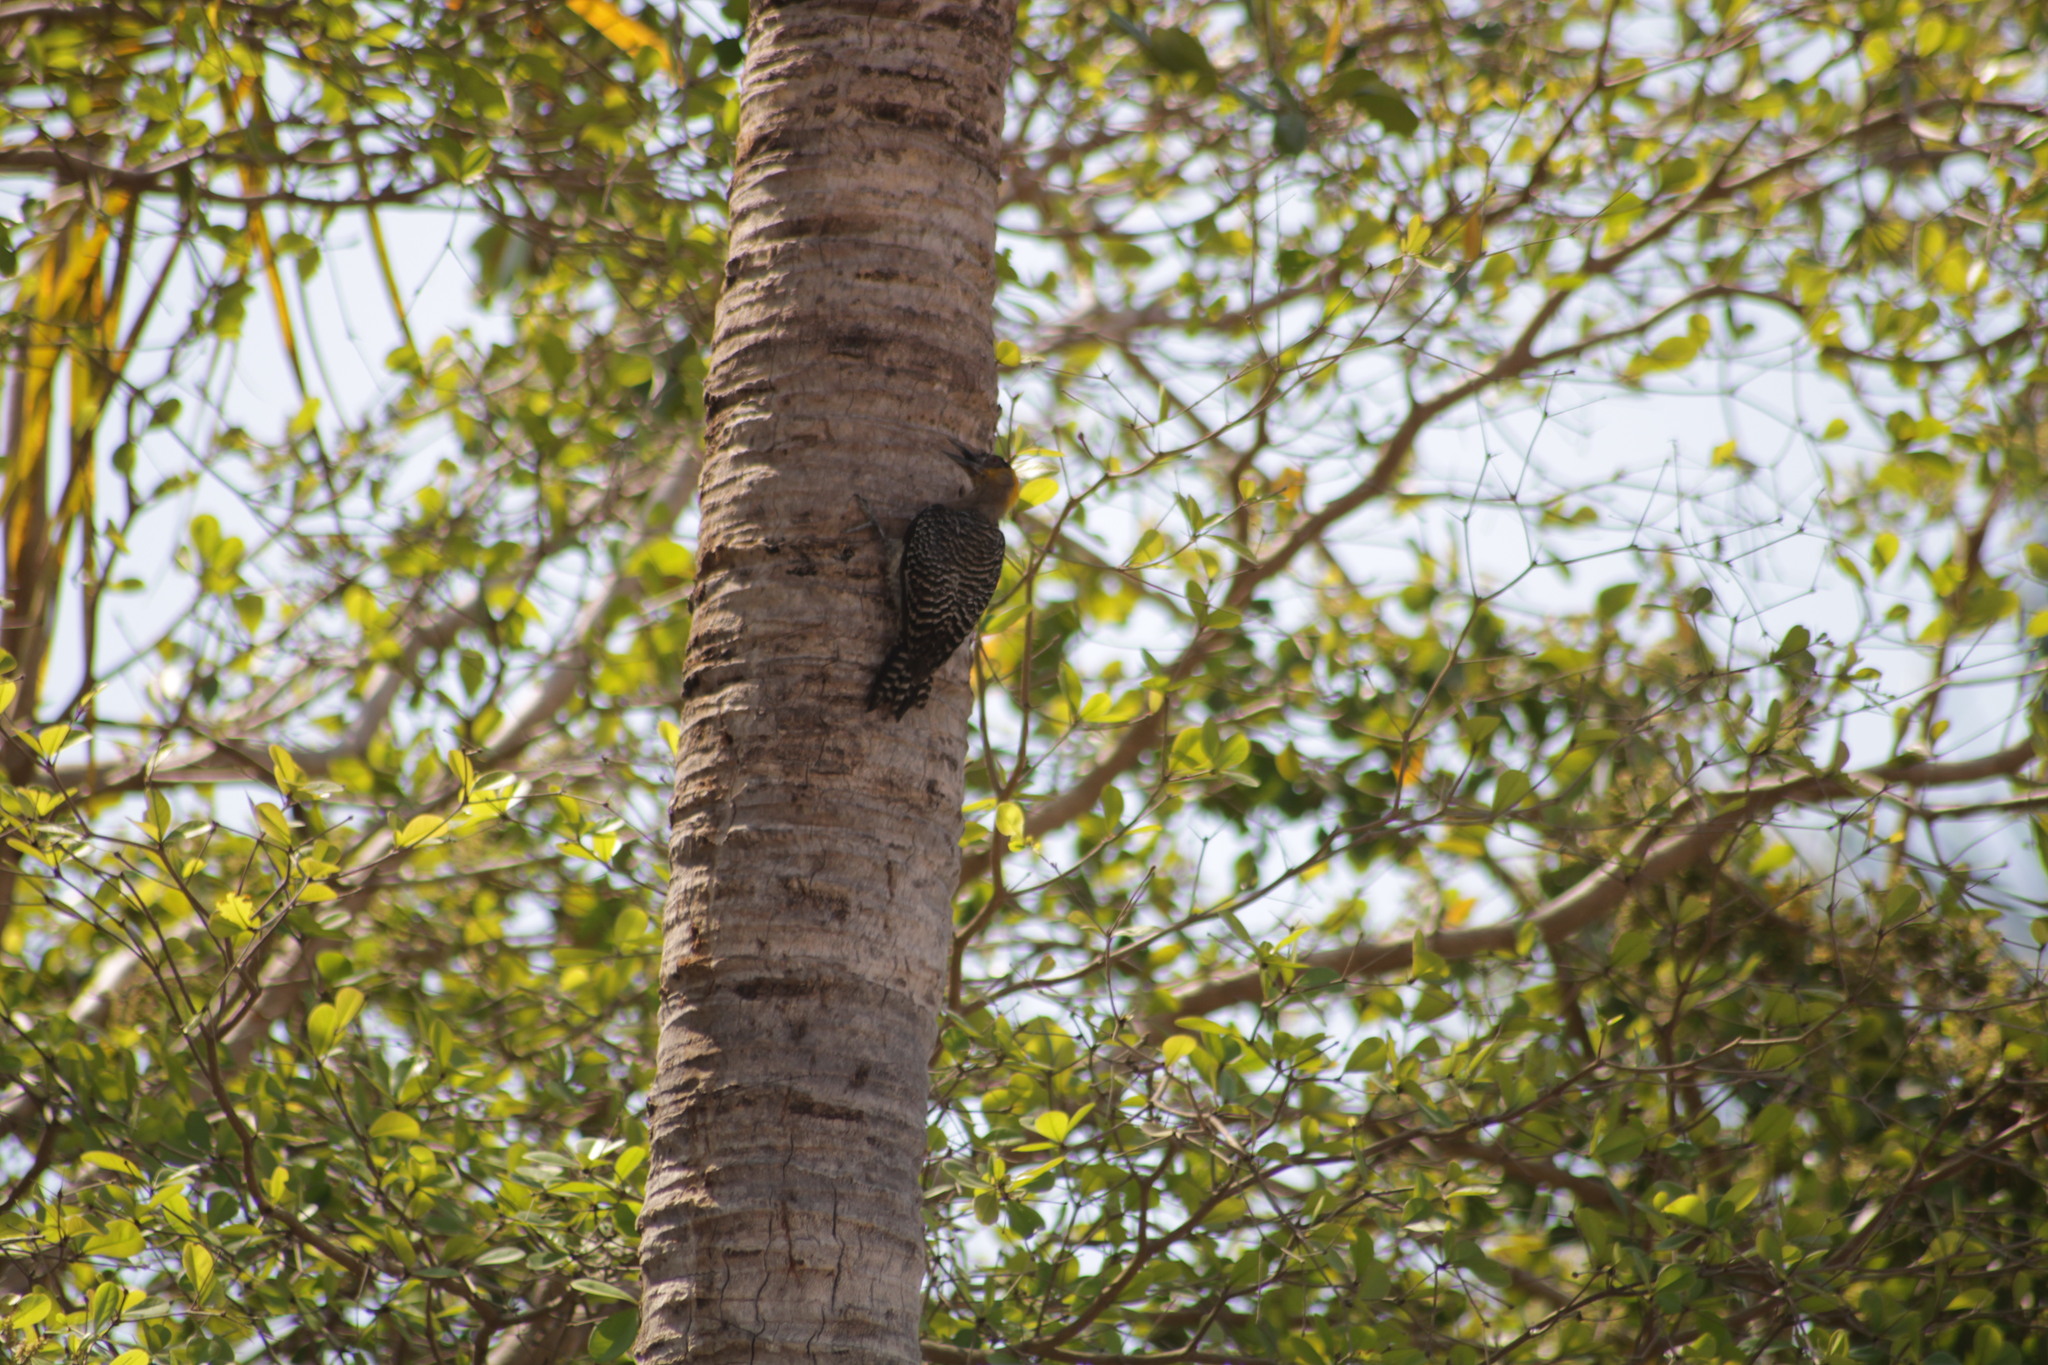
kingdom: Animalia
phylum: Chordata
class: Aves
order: Piciformes
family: Picidae
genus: Melanerpes
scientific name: Melanerpes chrysogenys
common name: Golden-cheeked woodpecker
